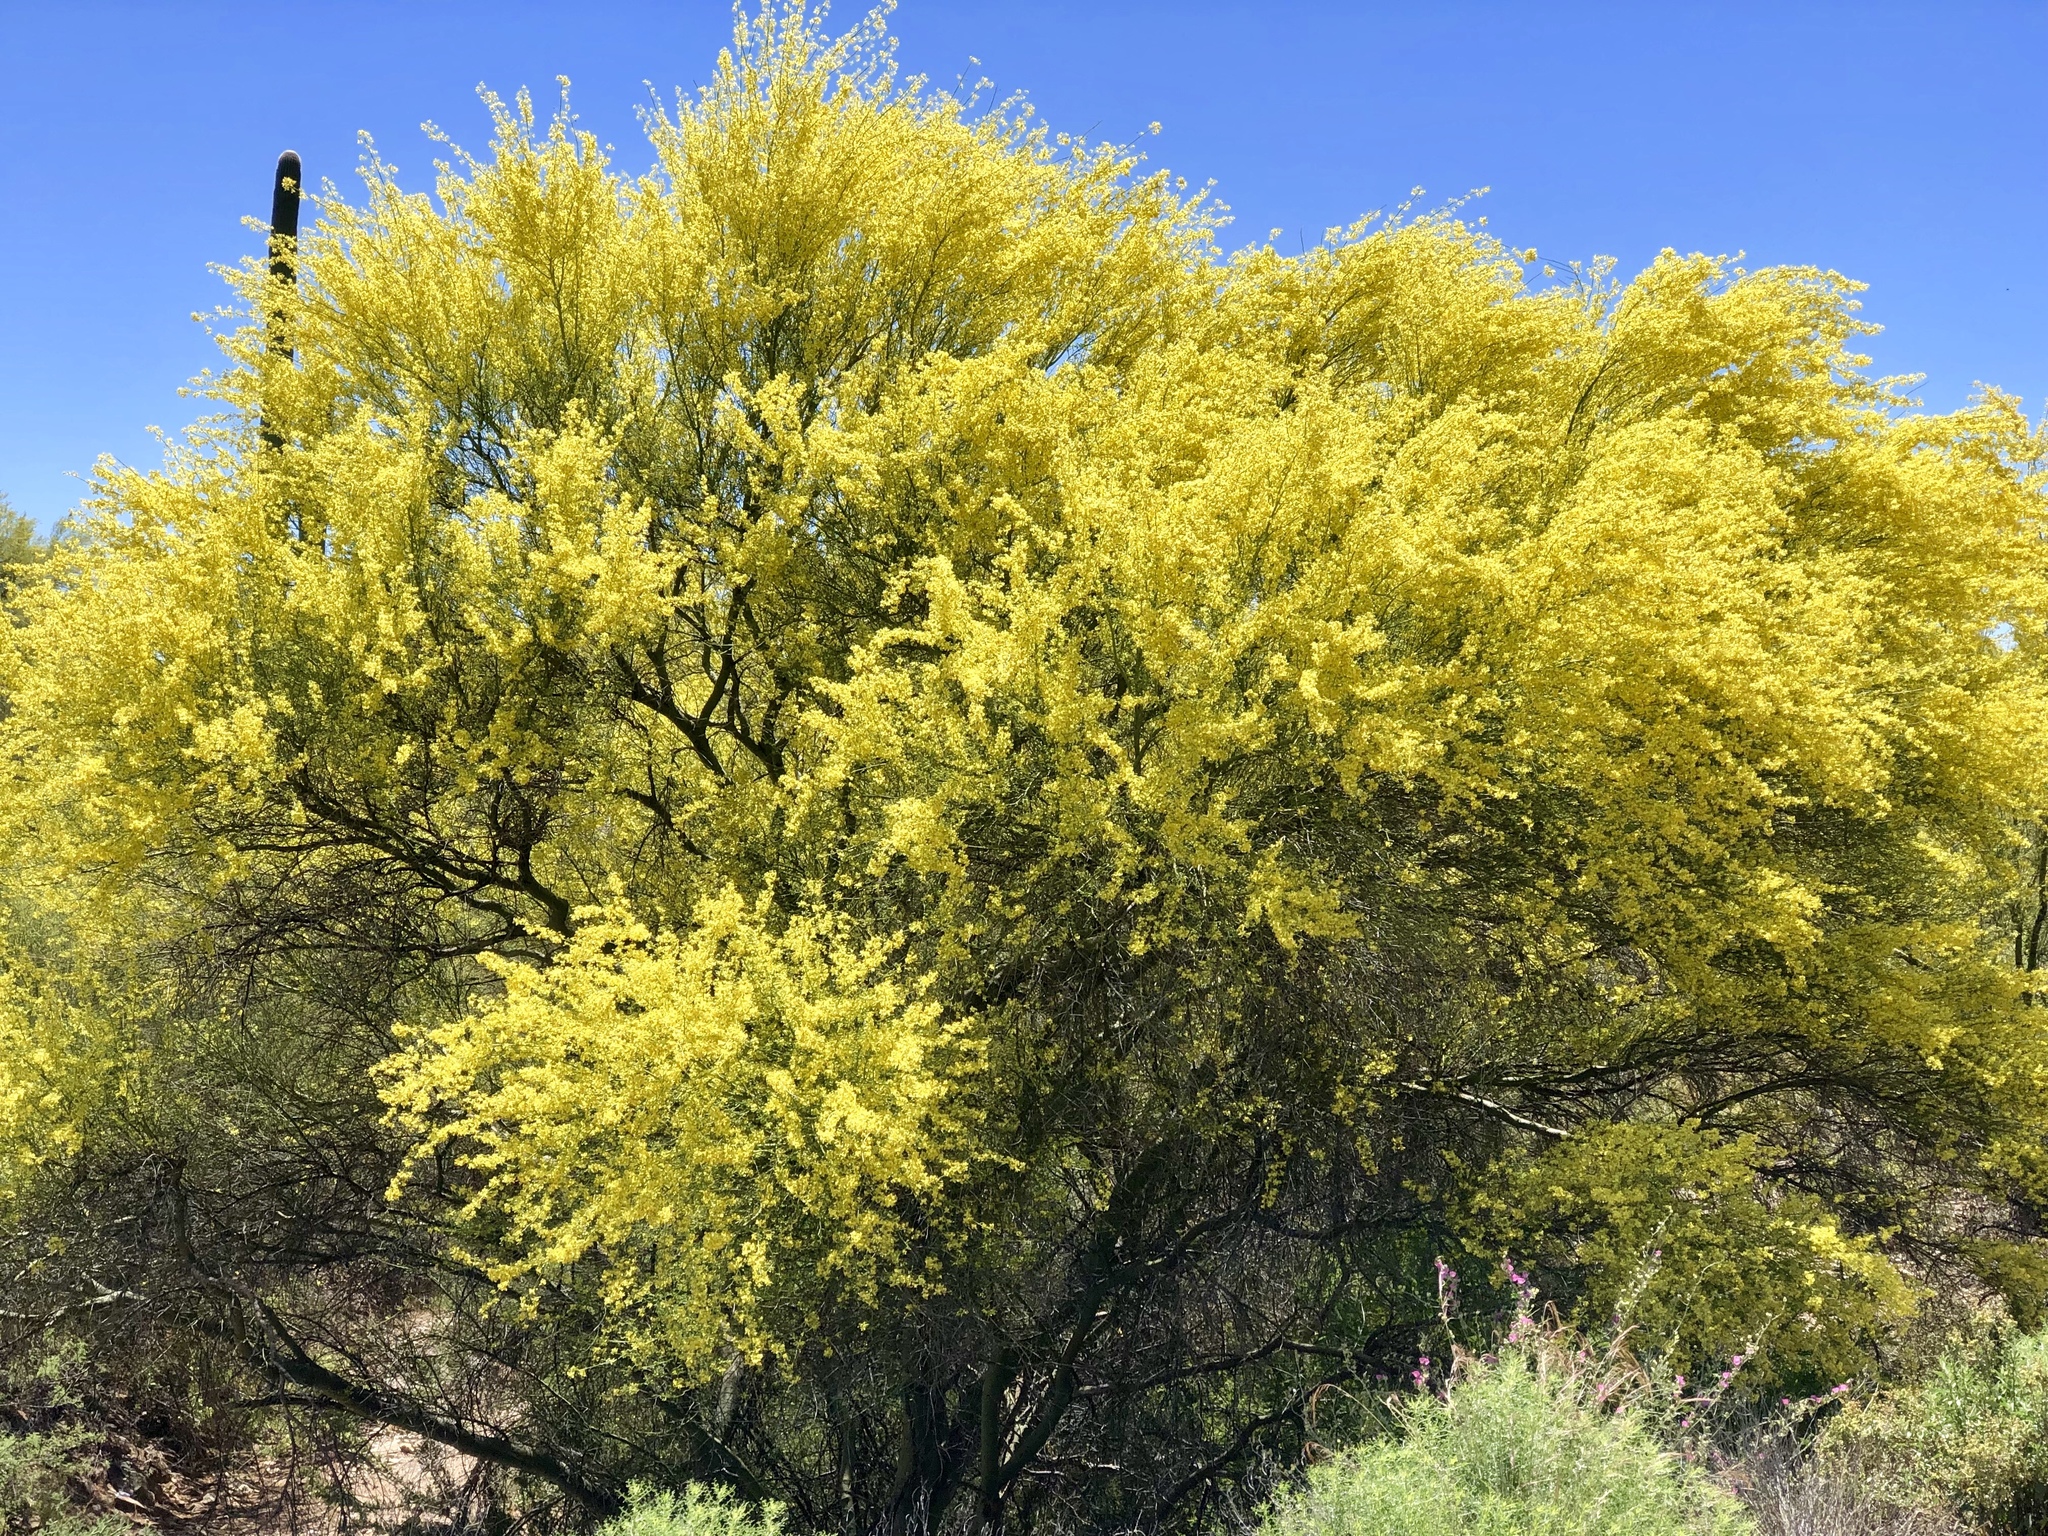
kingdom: Plantae
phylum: Tracheophyta
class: Magnoliopsida
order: Fabales
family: Fabaceae
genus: Parkinsonia
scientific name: Parkinsonia florida
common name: Blue paloverde
